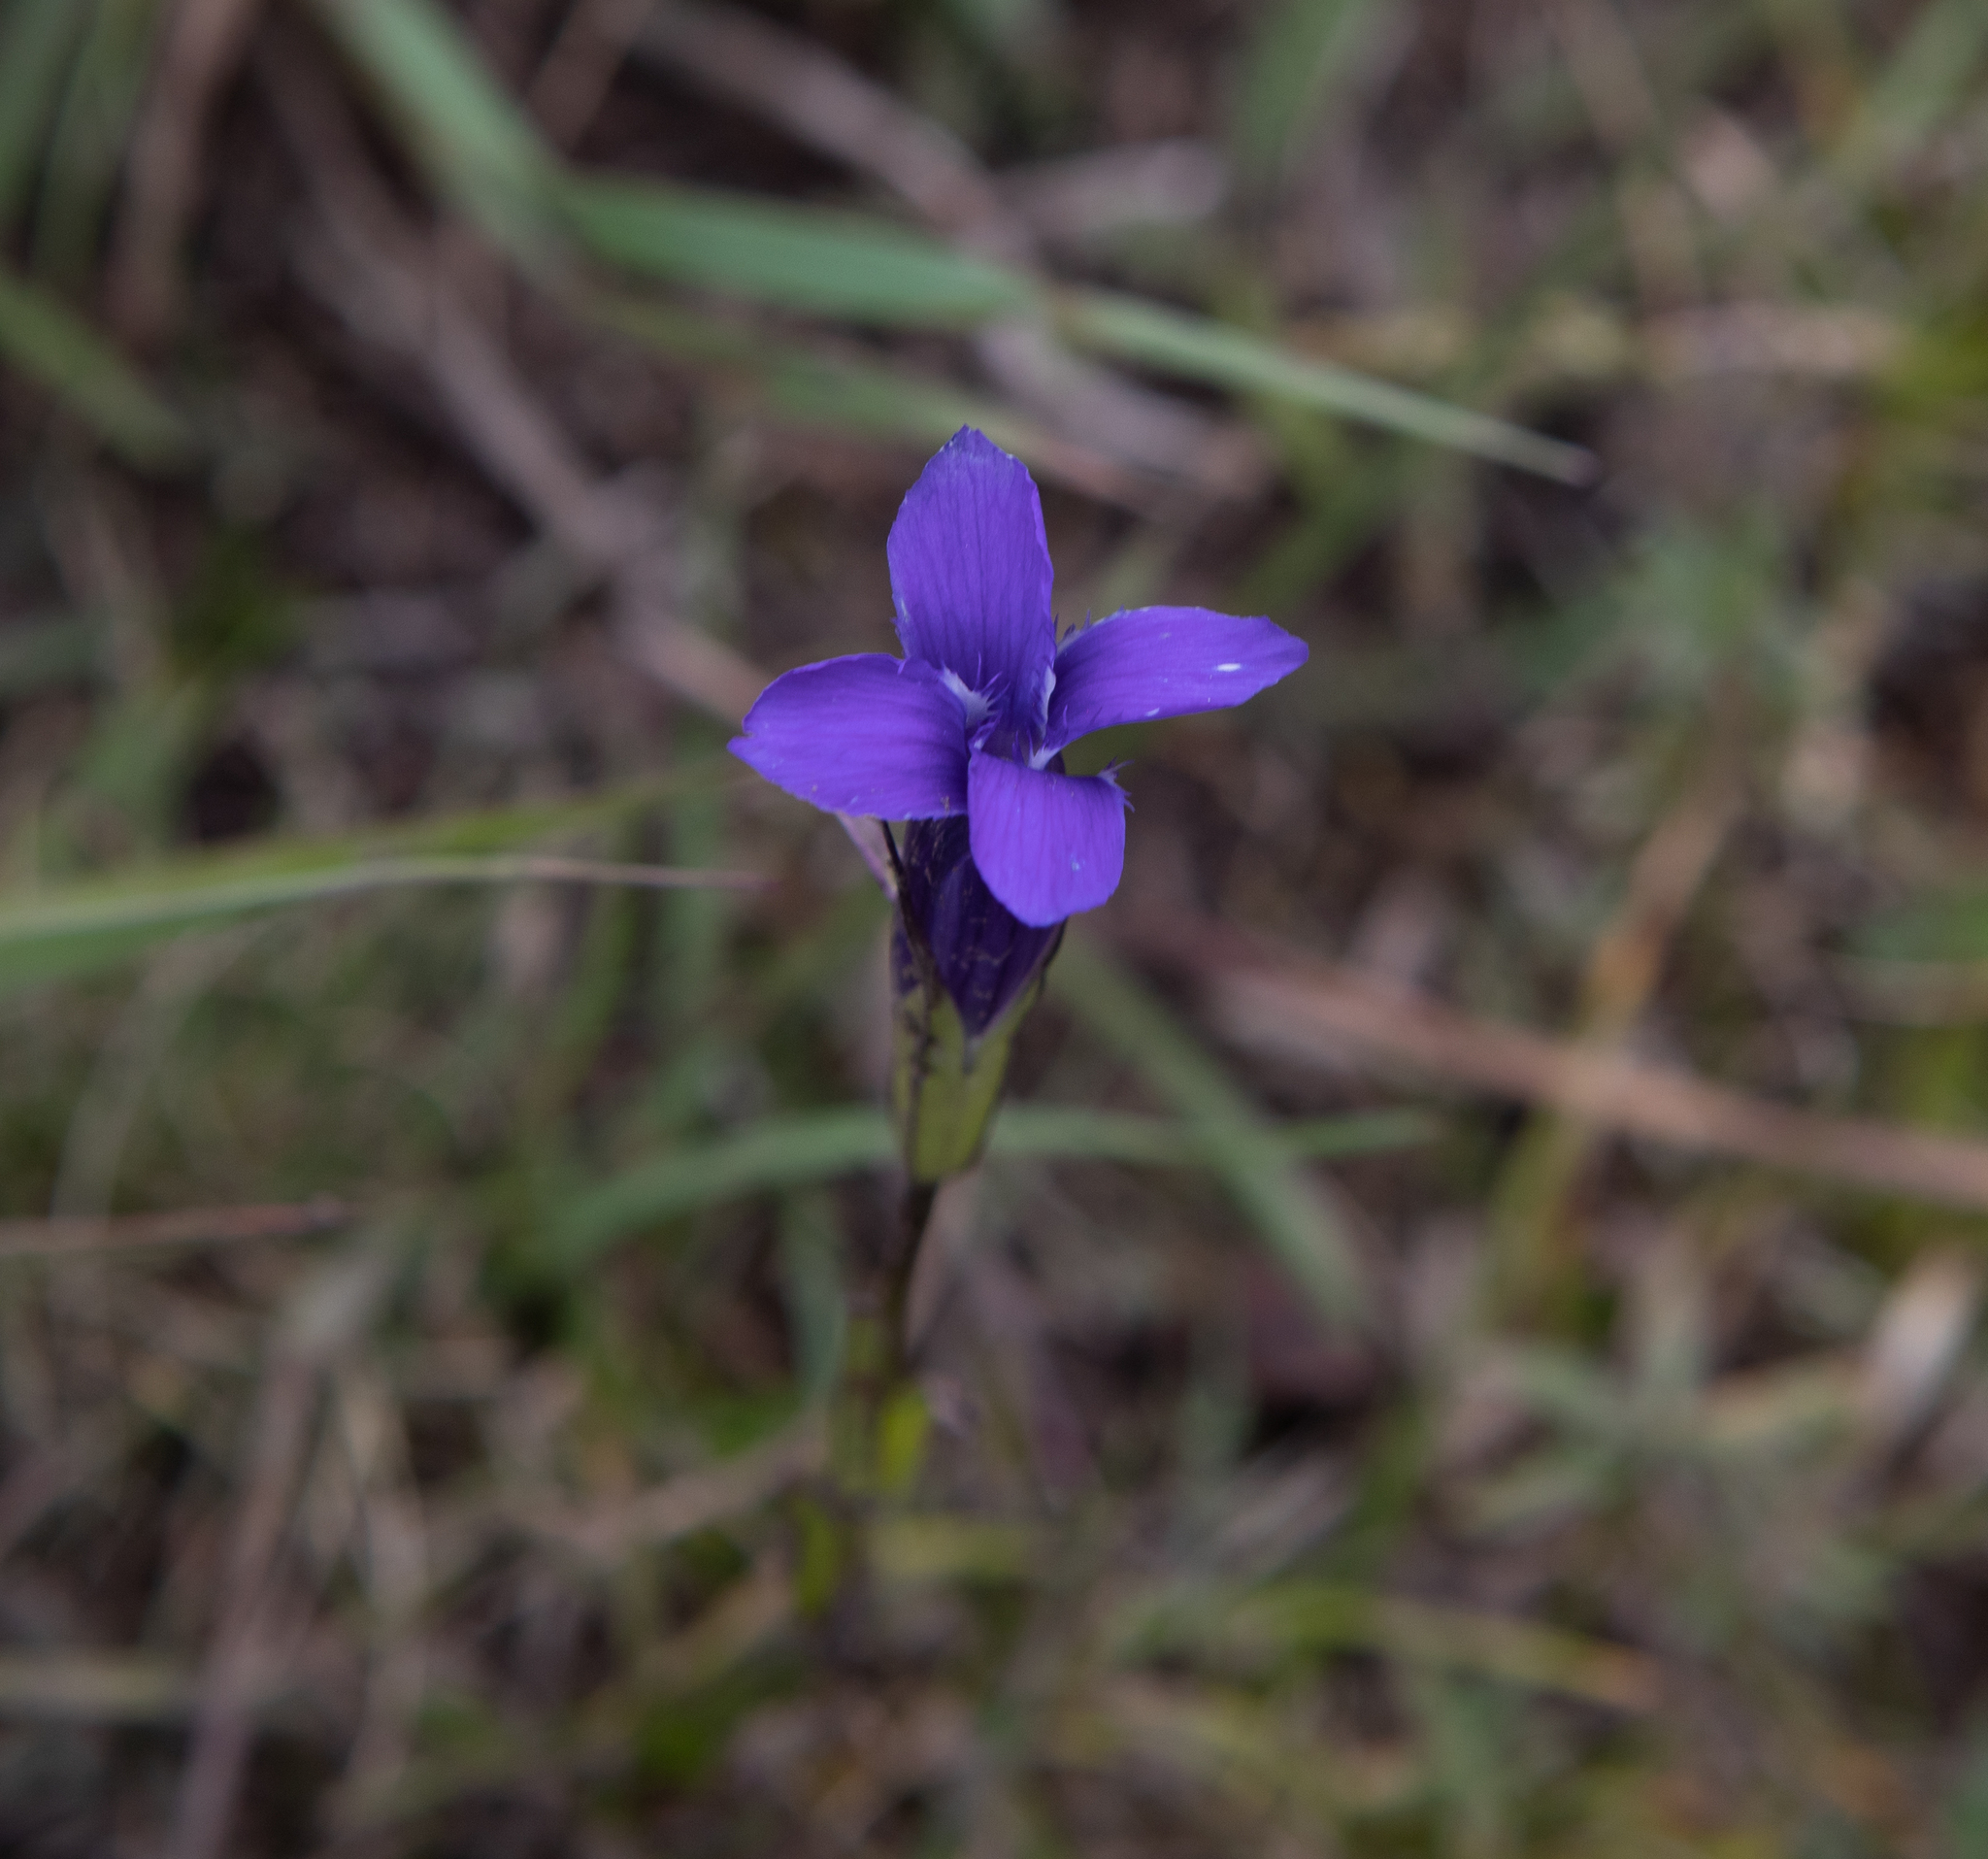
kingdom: Plantae
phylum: Tracheophyta
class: Magnoliopsida
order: Gentianales
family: Gentianaceae
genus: Gentianopsis
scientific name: Gentianopsis barbata
